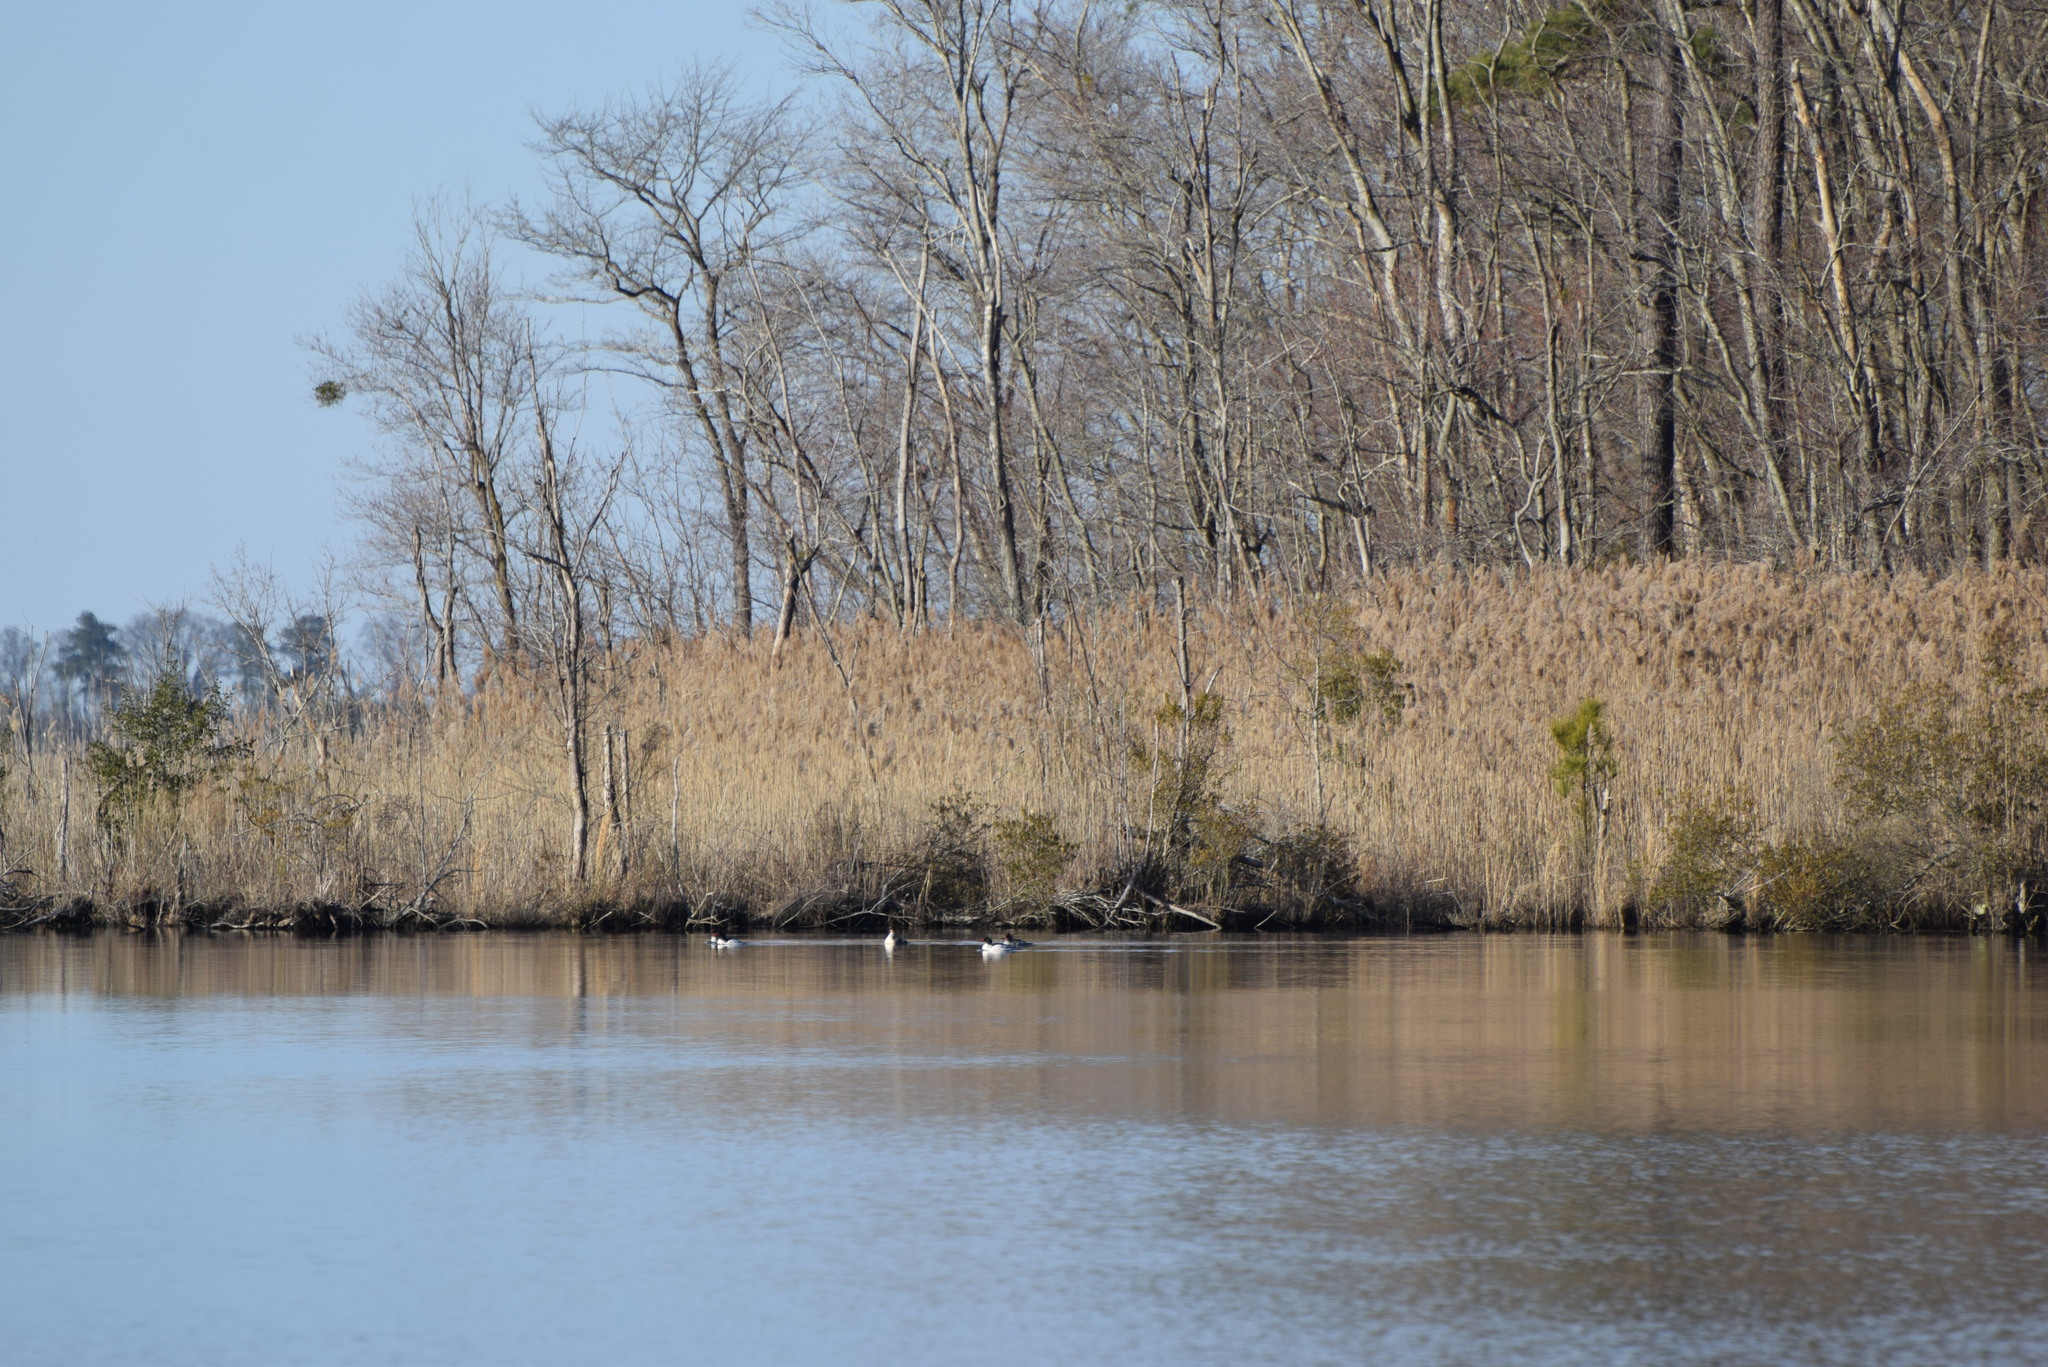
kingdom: Animalia
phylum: Chordata
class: Aves
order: Anseriformes
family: Anatidae
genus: Mergus
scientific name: Mergus merganser
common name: Common merganser
